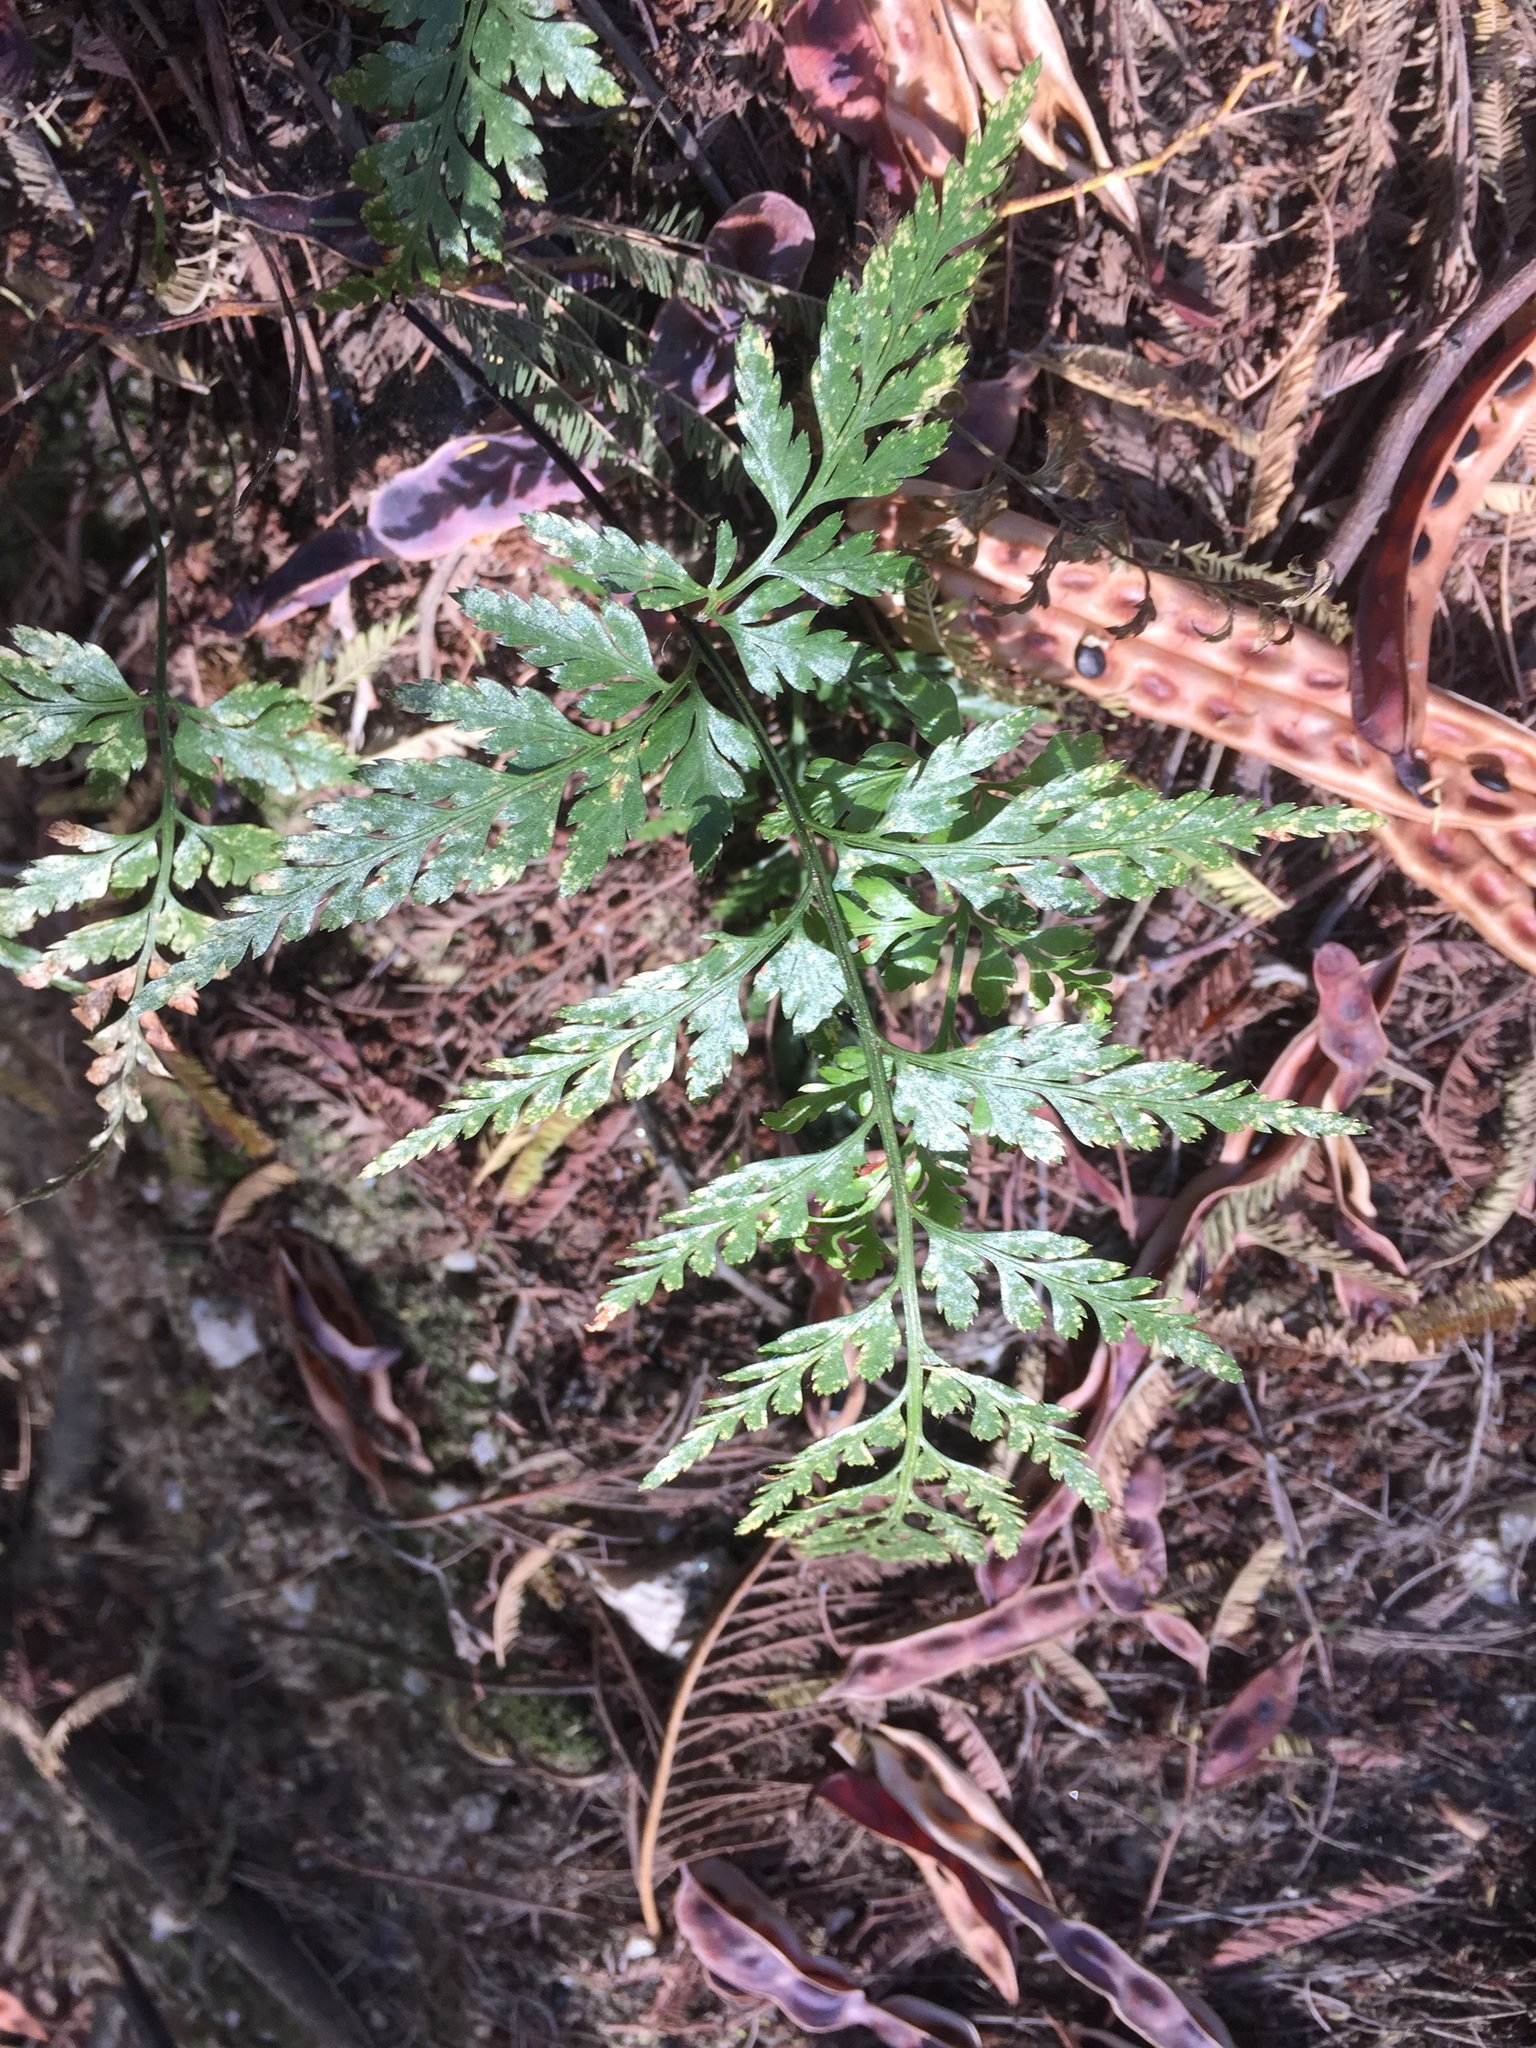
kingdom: Plantae
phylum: Tracheophyta
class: Polypodiopsida
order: Polypodiales
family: Aspleniaceae
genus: Asplenium
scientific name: Asplenium onopteris
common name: Irish spleenwort
